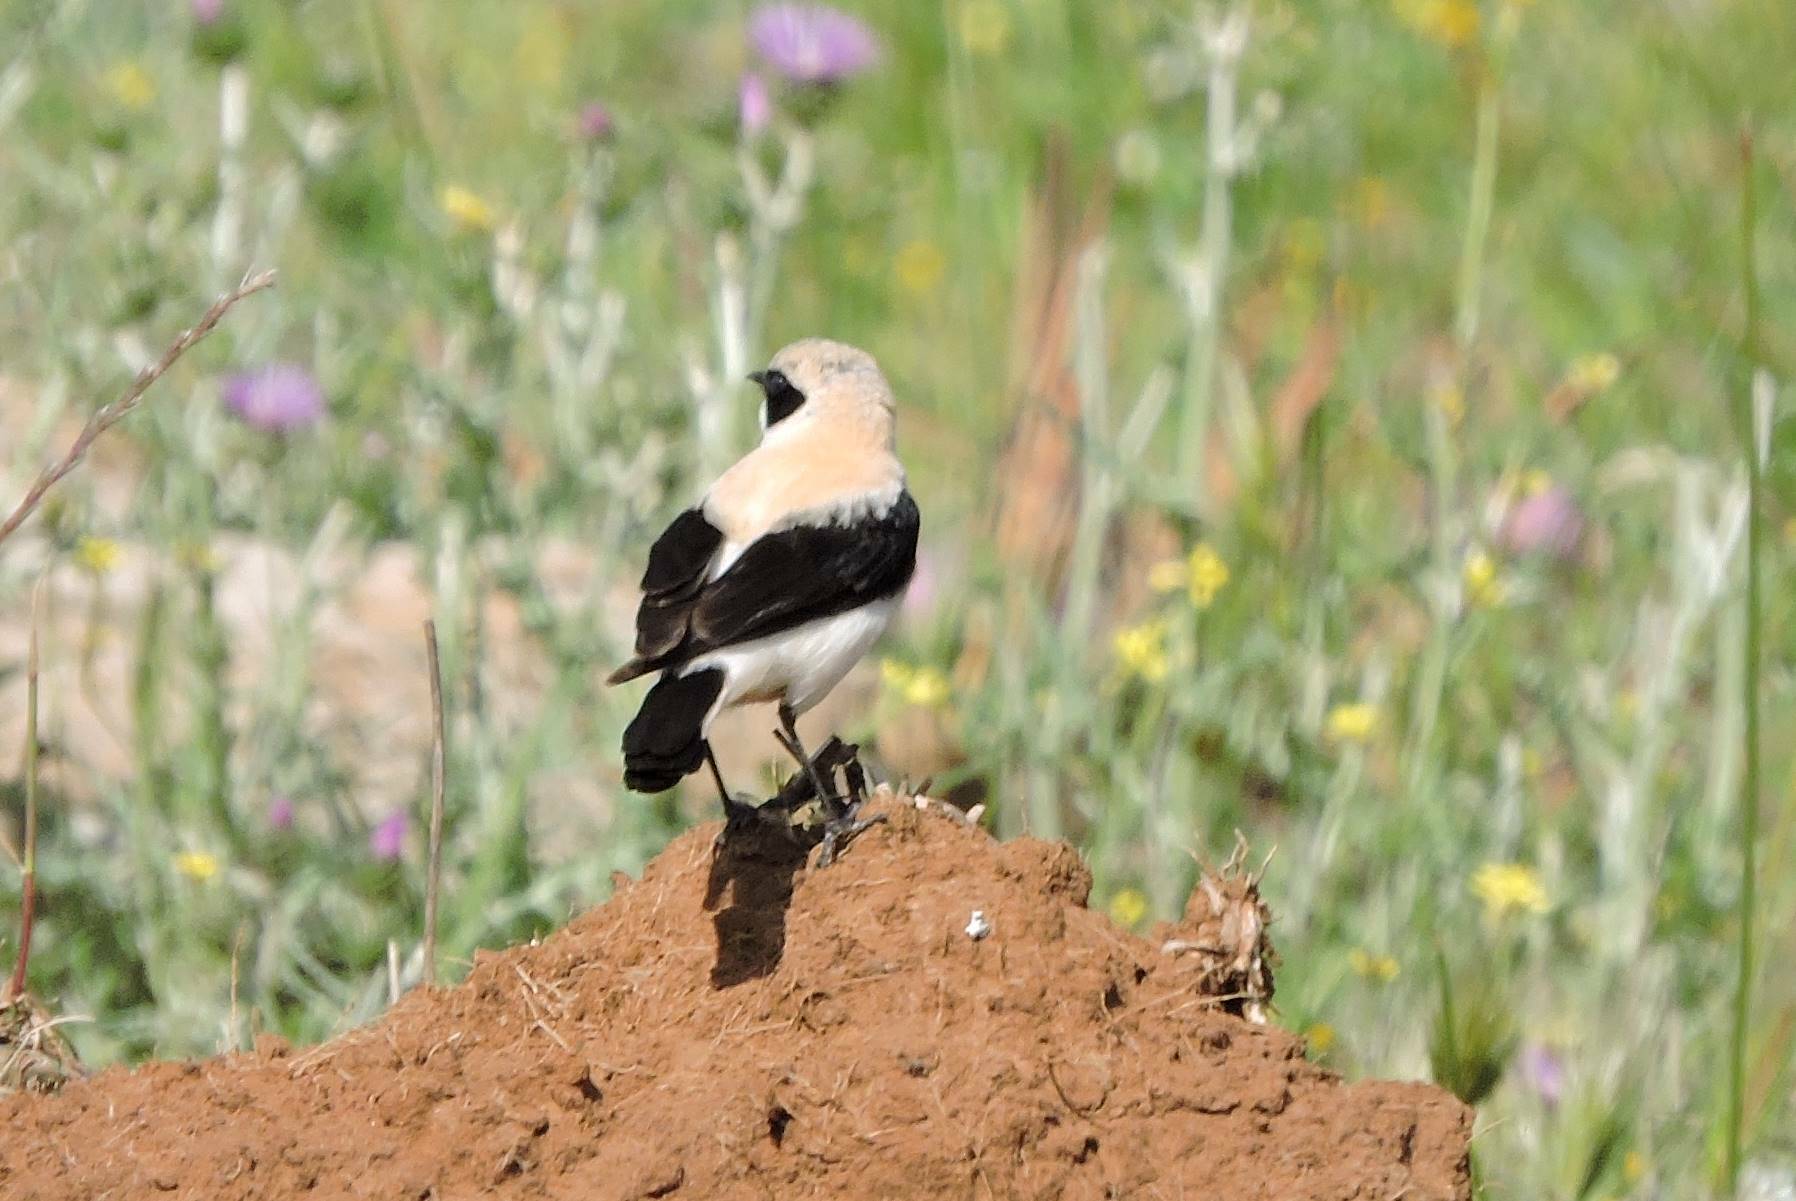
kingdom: Animalia
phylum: Chordata
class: Aves
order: Passeriformes
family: Muscicapidae
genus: Oenanthe
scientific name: Oenanthe hispanica
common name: Black-eared wheatear
